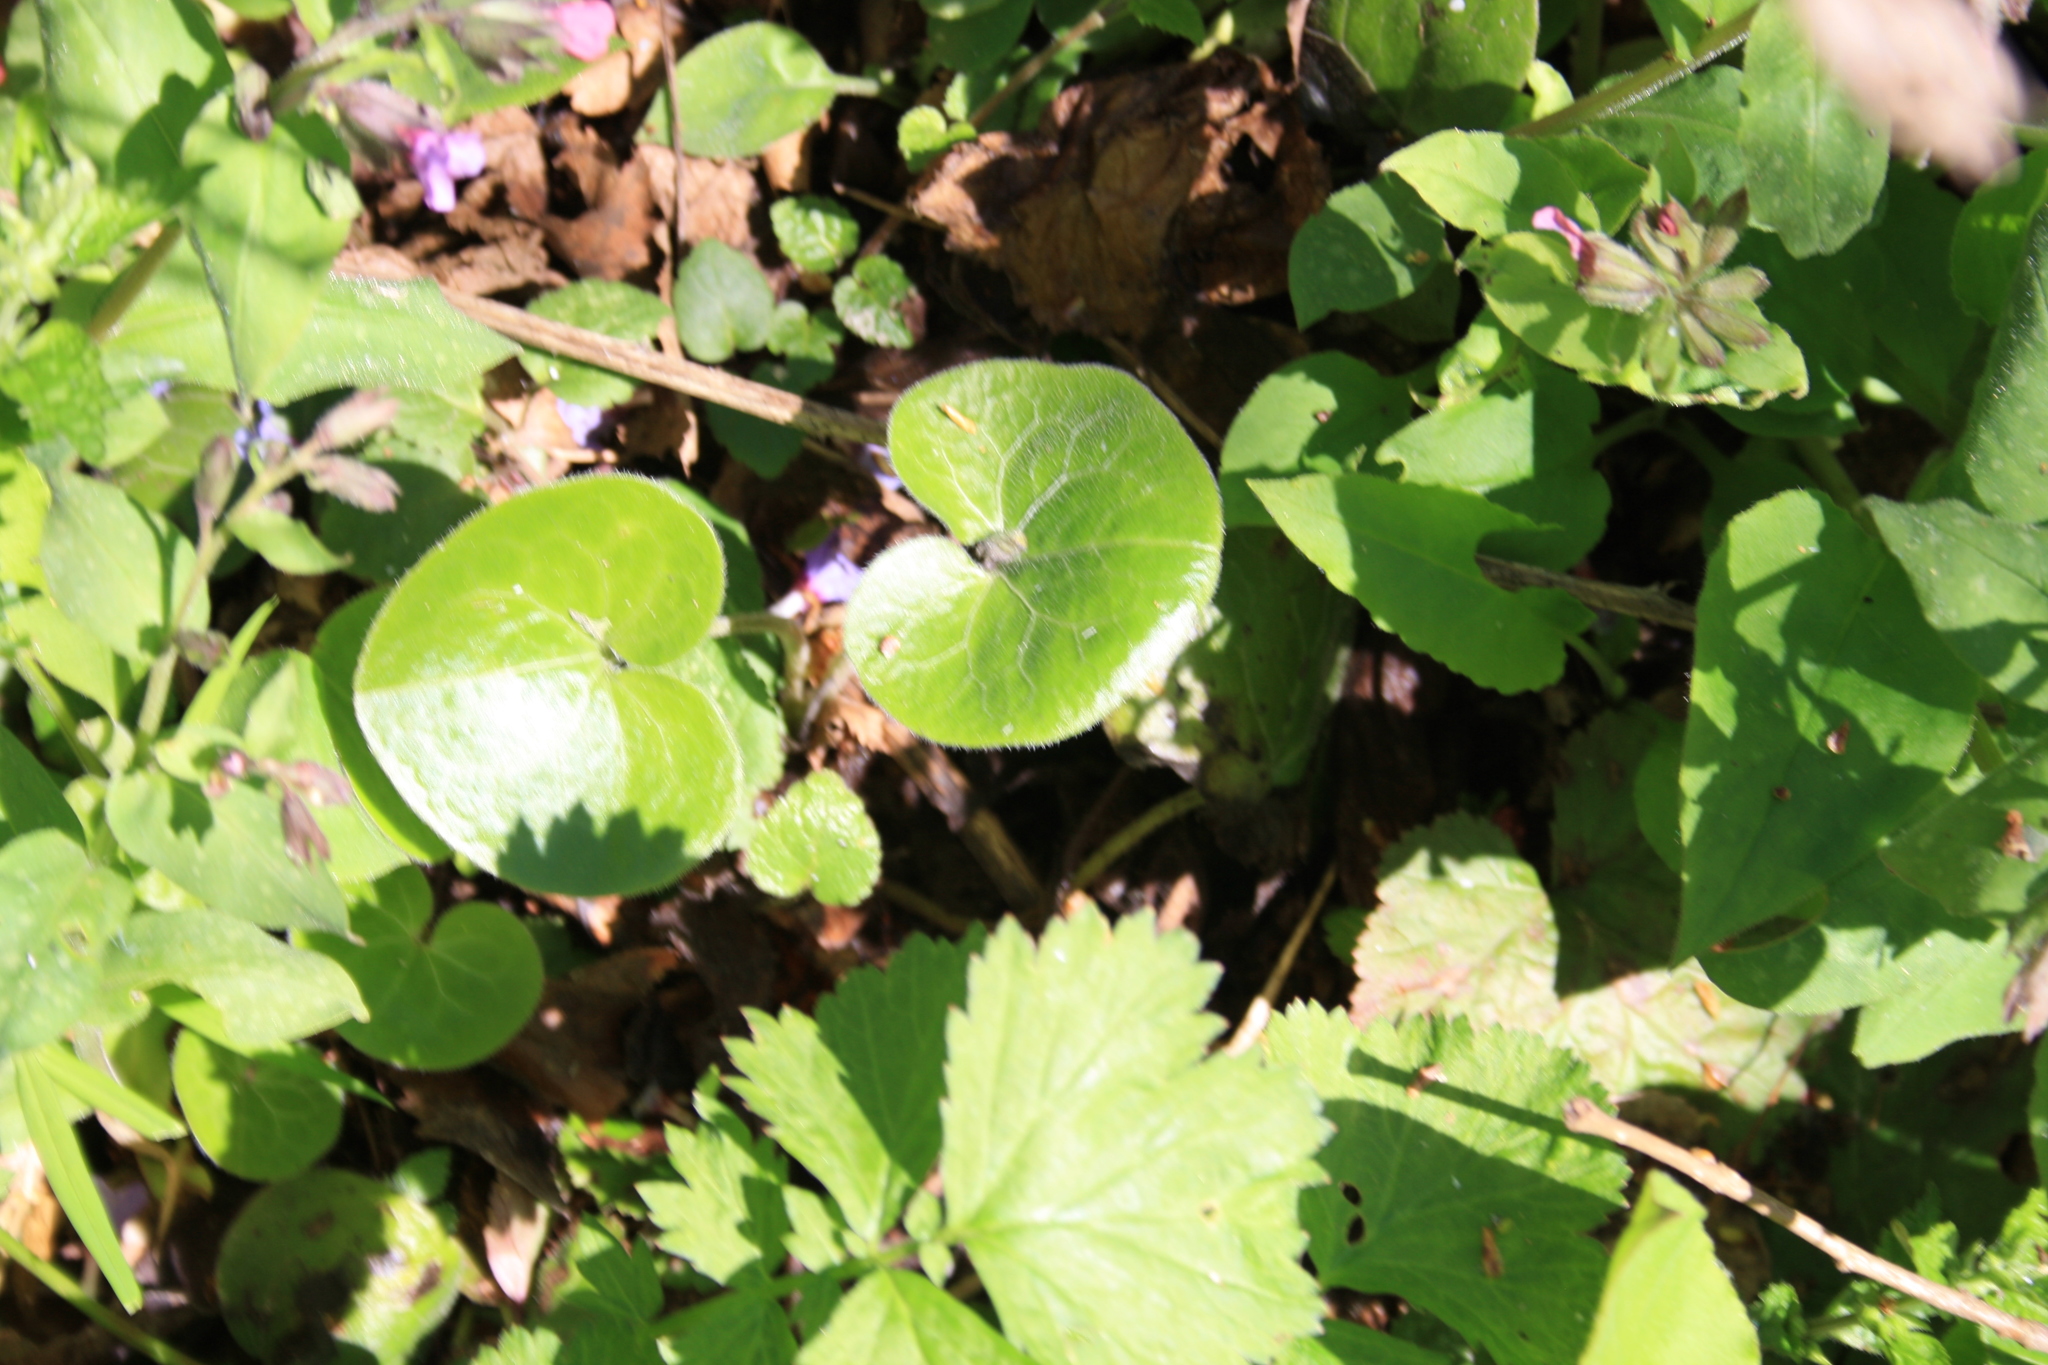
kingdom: Plantae
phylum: Tracheophyta
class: Magnoliopsida
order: Piperales
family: Aristolochiaceae
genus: Asarum
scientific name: Asarum europaeum
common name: Asarabacca
